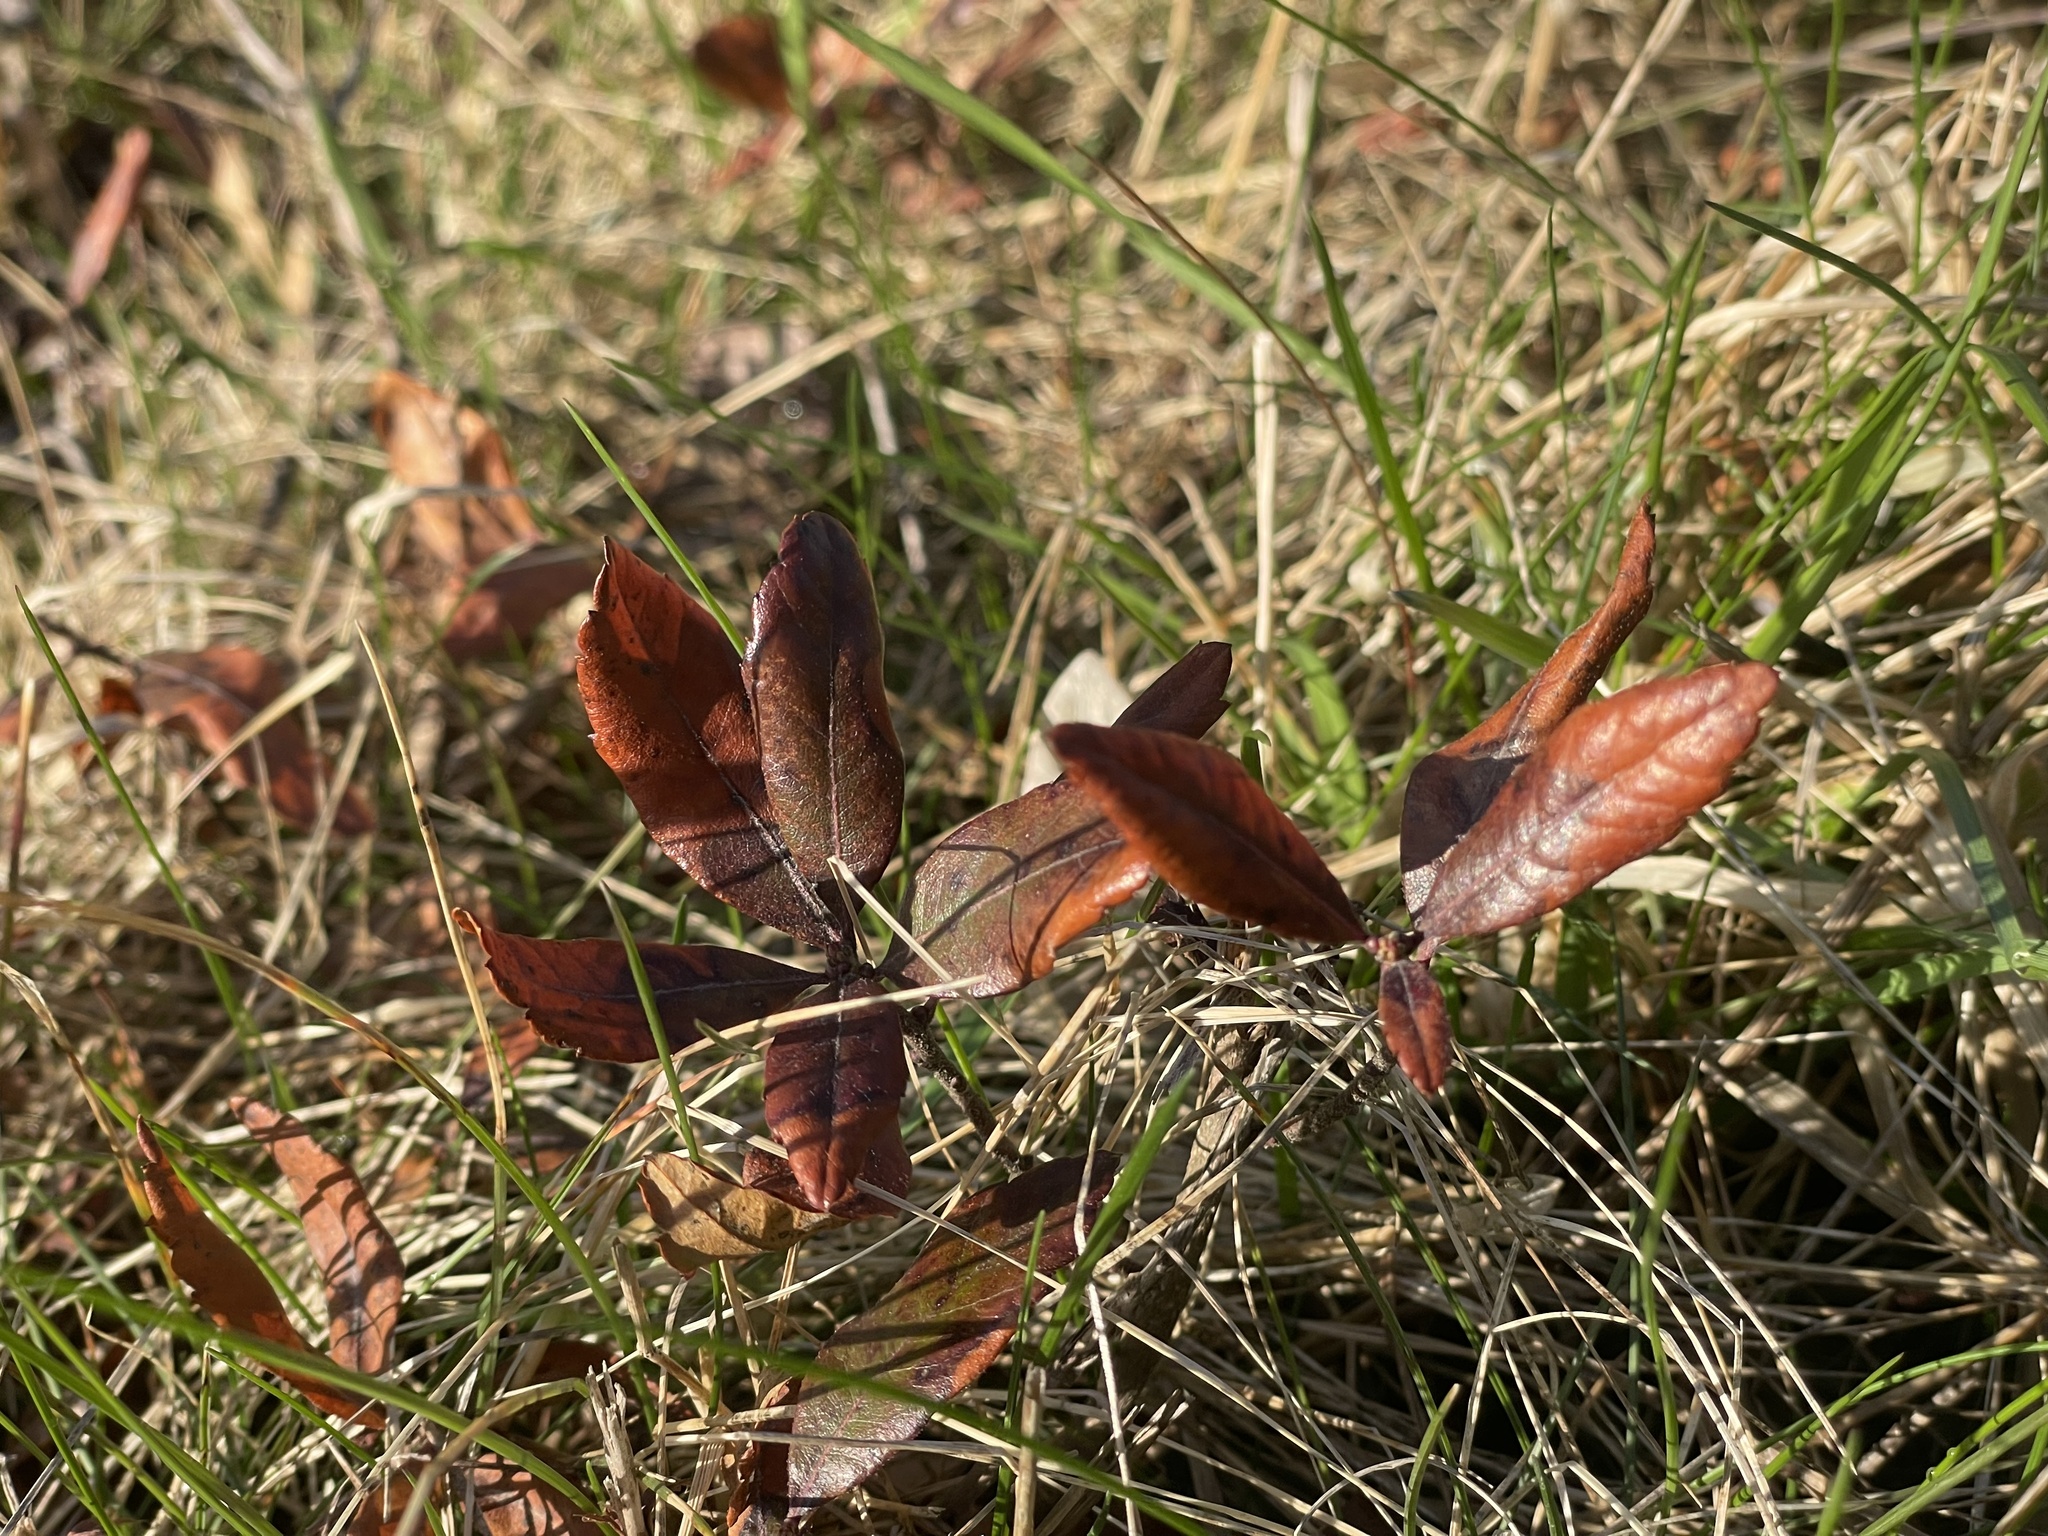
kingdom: Plantae
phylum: Tracheophyta
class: Magnoliopsida
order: Fagales
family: Myricaceae
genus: Morella
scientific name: Morella pensylvanica
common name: Northern bayberry
